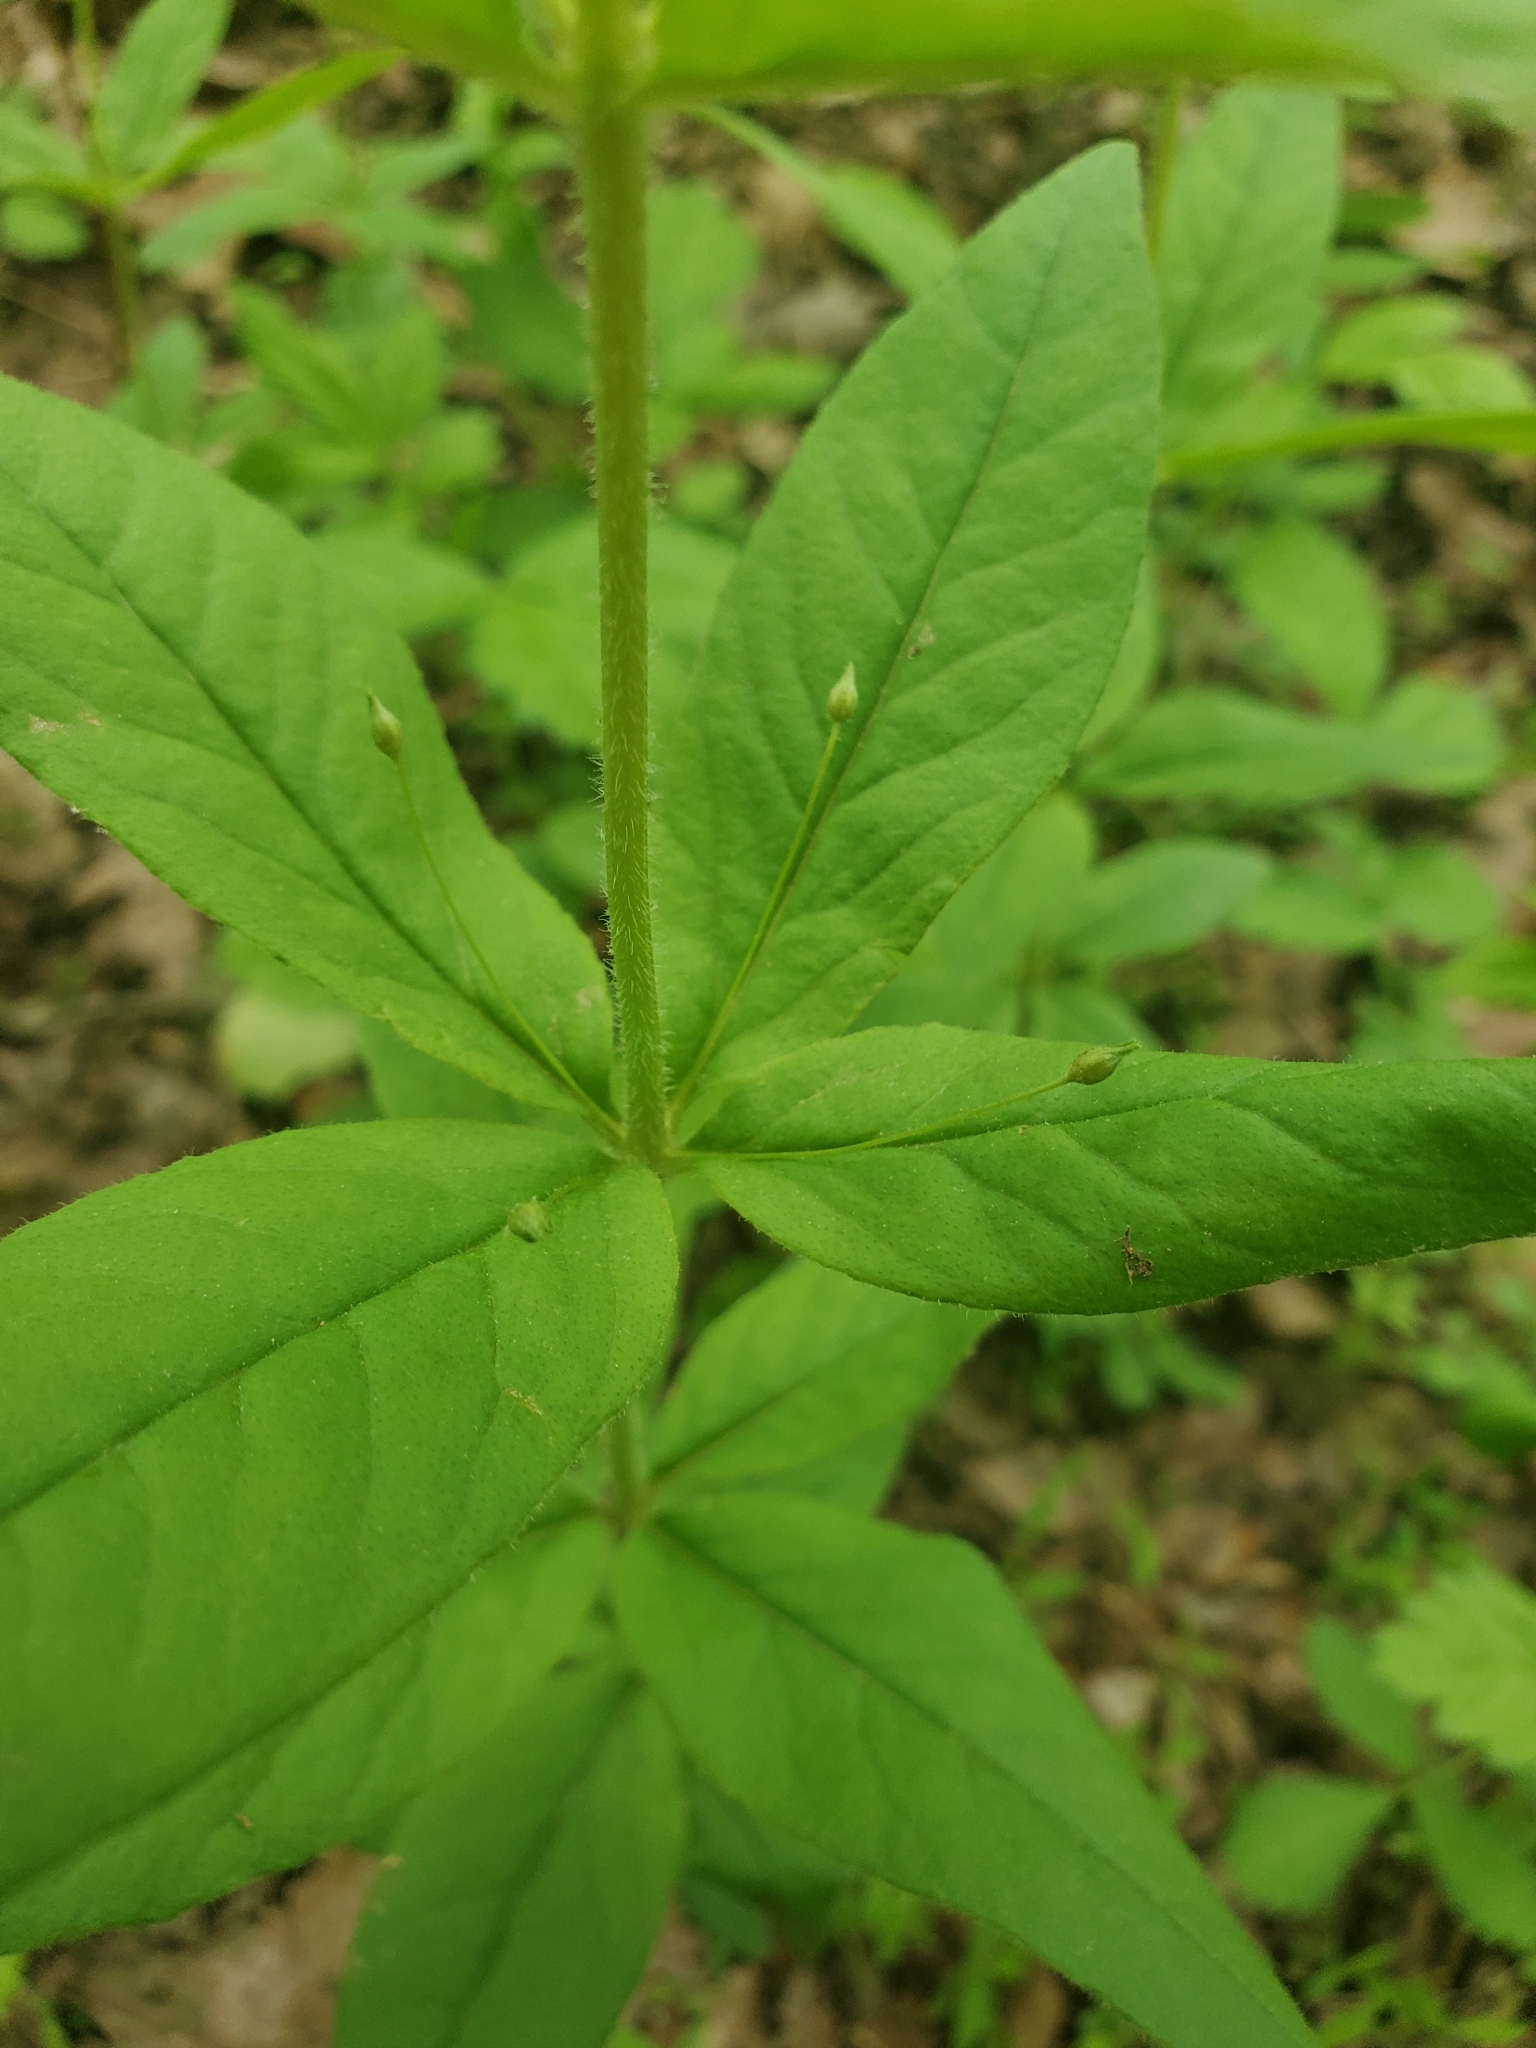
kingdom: Plantae
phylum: Tracheophyta
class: Magnoliopsida
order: Ericales
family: Primulaceae
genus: Lysimachia
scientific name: Lysimachia quadrifolia
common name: Whorled loosestrife
